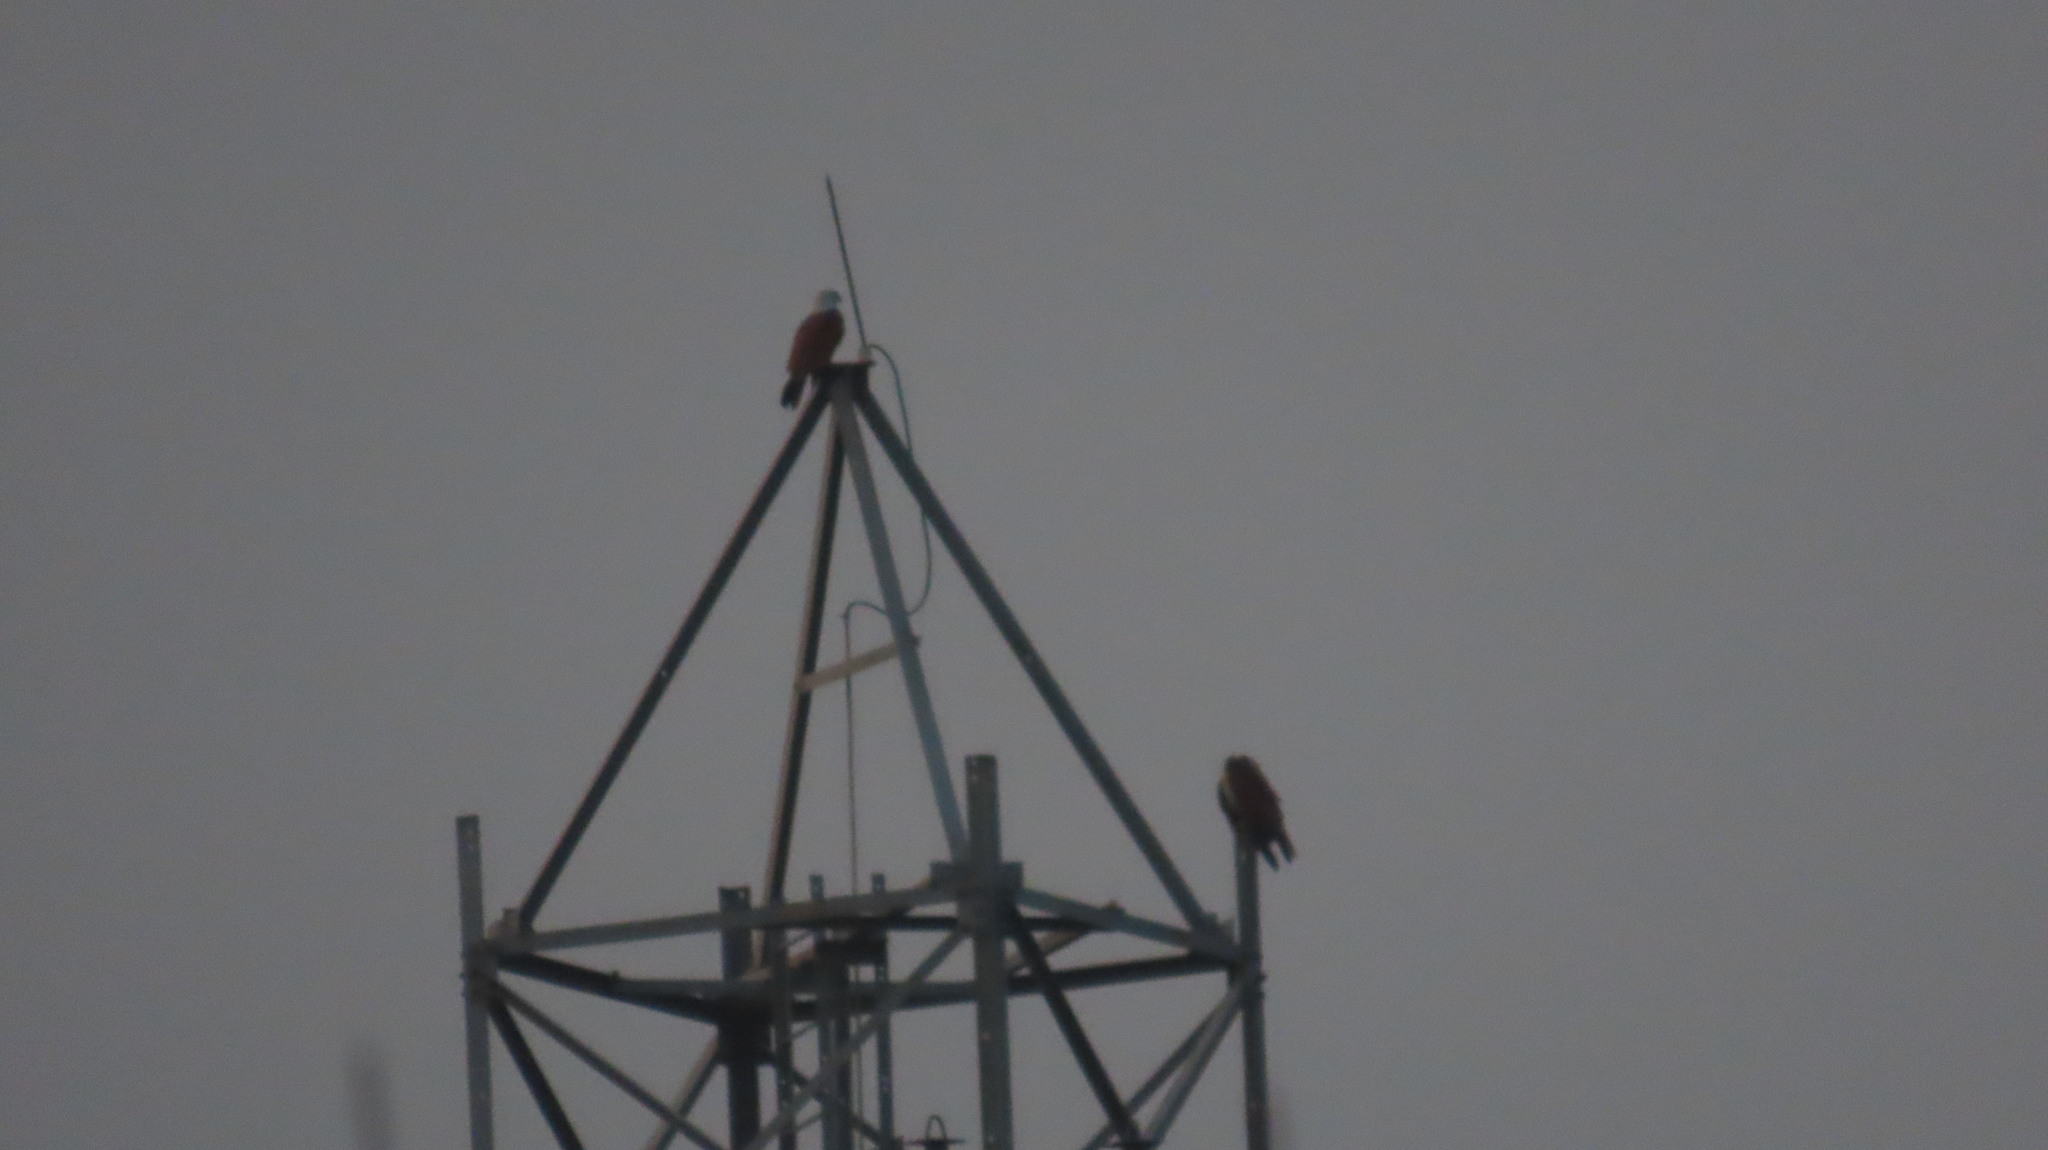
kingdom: Animalia
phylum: Chordata
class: Aves
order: Accipitriformes
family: Accipitridae
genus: Haliastur
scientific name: Haliastur indus
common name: Brahminy kite
